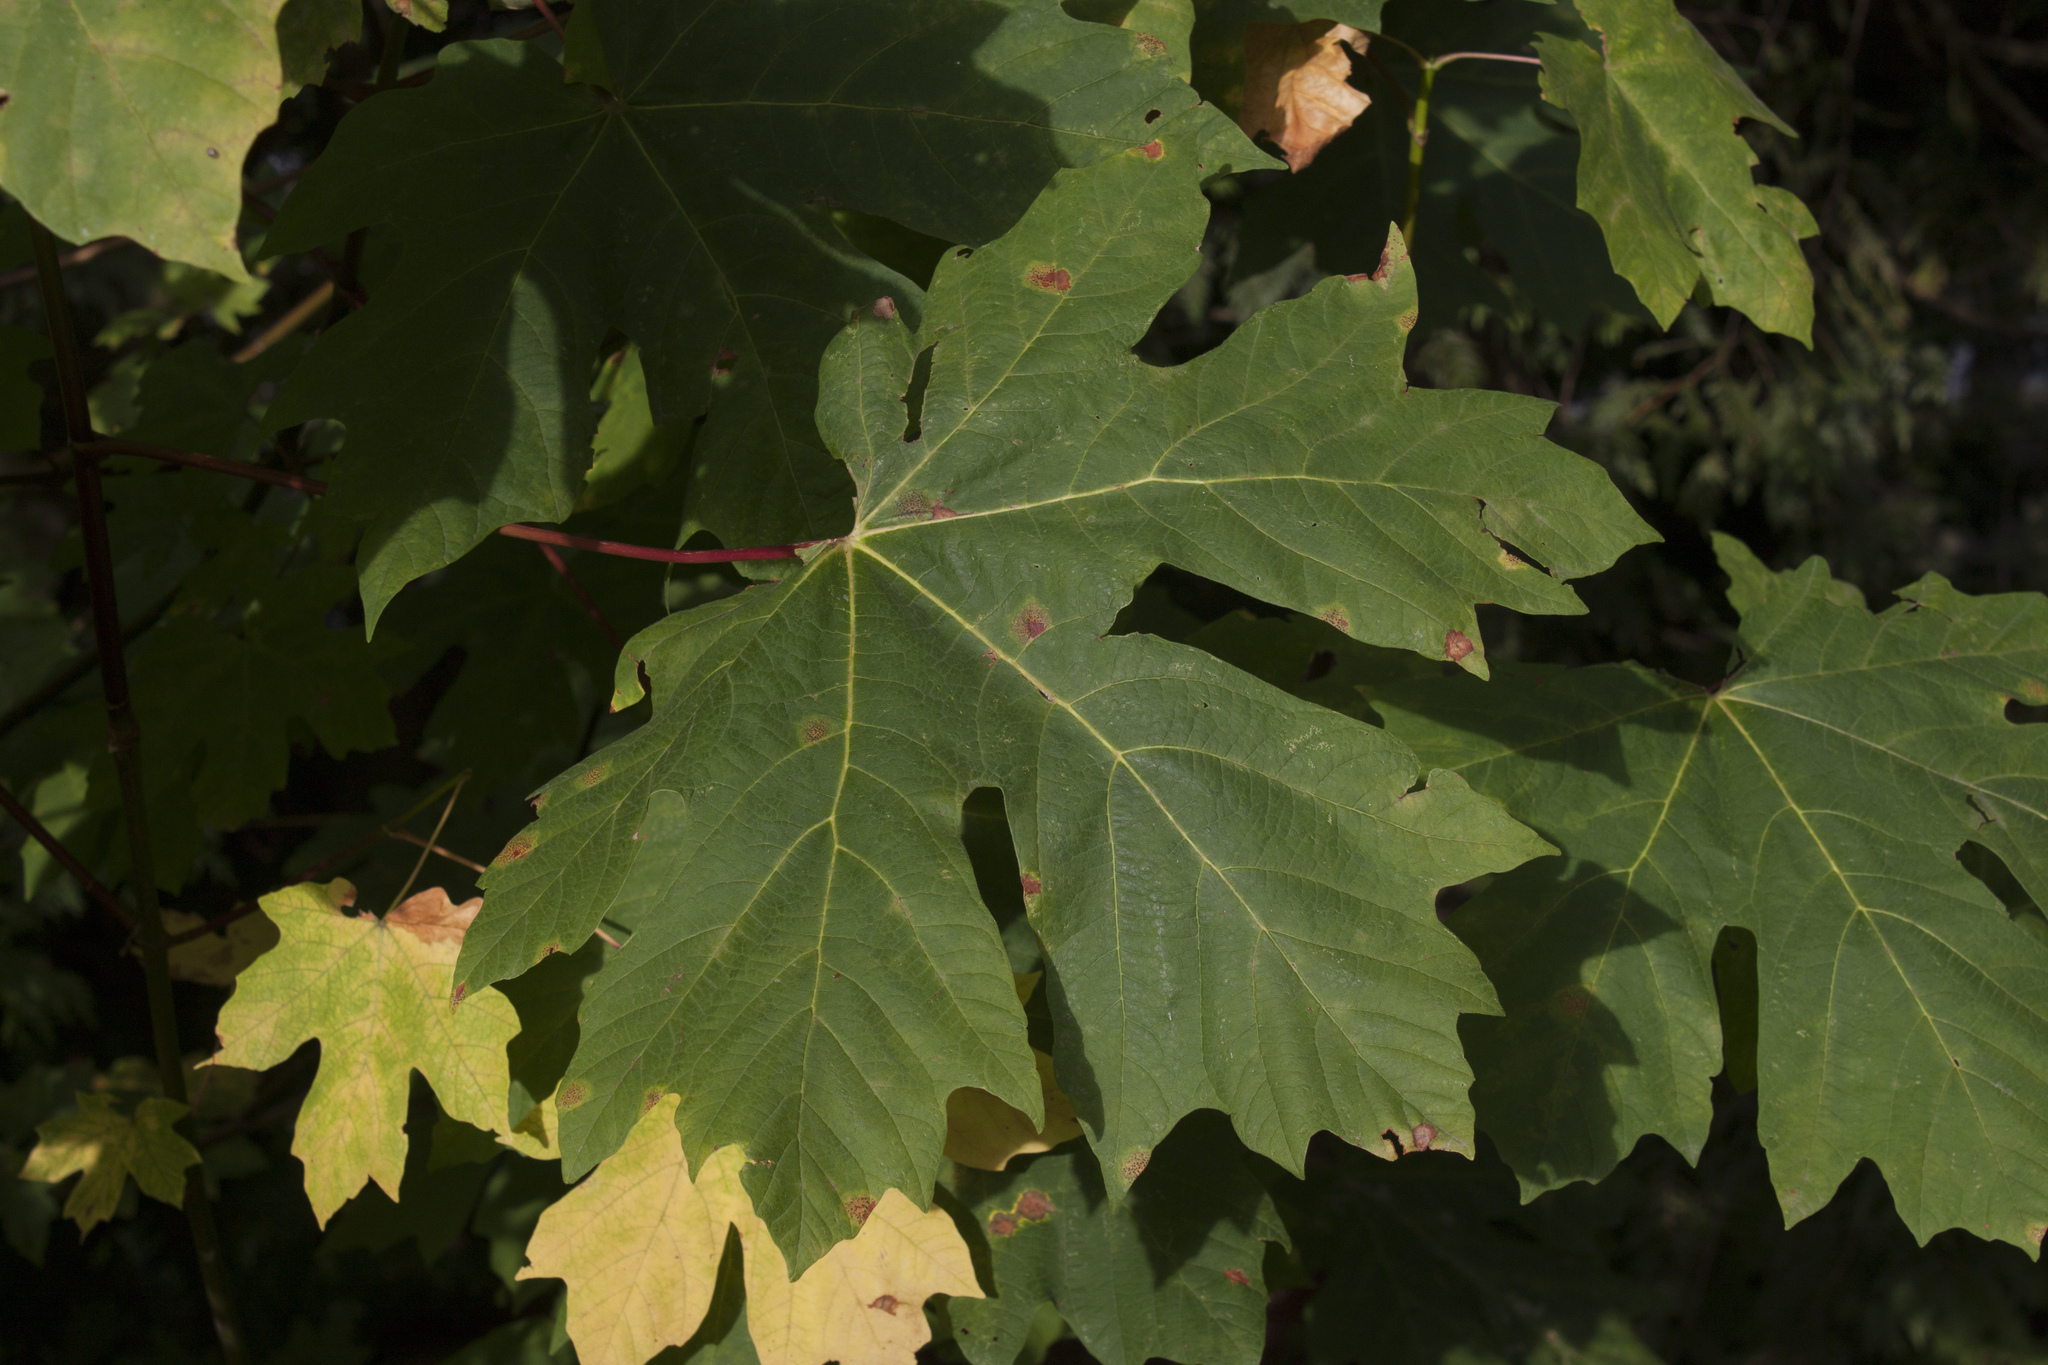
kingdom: Plantae
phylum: Tracheophyta
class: Magnoliopsida
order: Sapindales
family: Sapindaceae
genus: Acer
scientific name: Acer macrophyllum
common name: Oregon maple
